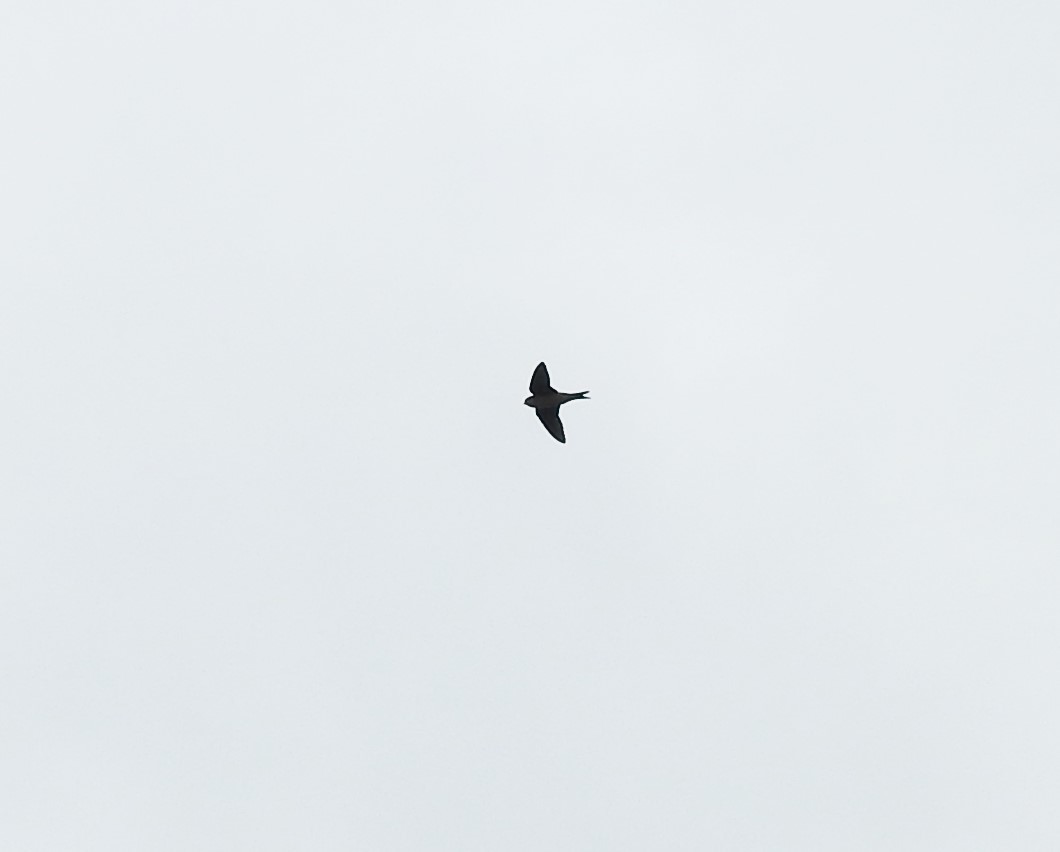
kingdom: Animalia
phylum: Chordata
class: Aves
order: Passeriformes
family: Hirundinidae
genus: Delichon
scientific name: Delichon urbicum
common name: Common house martin
